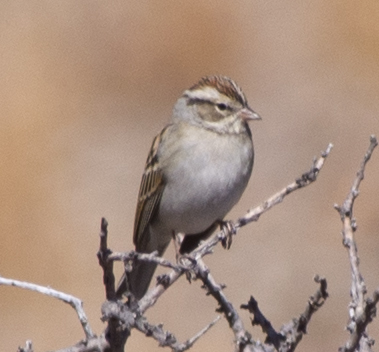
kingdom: Animalia
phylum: Chordata
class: Aves
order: Passeriformes
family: Passerellidae
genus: Spizella
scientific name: Spizella passerina
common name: Chipping sparrow
